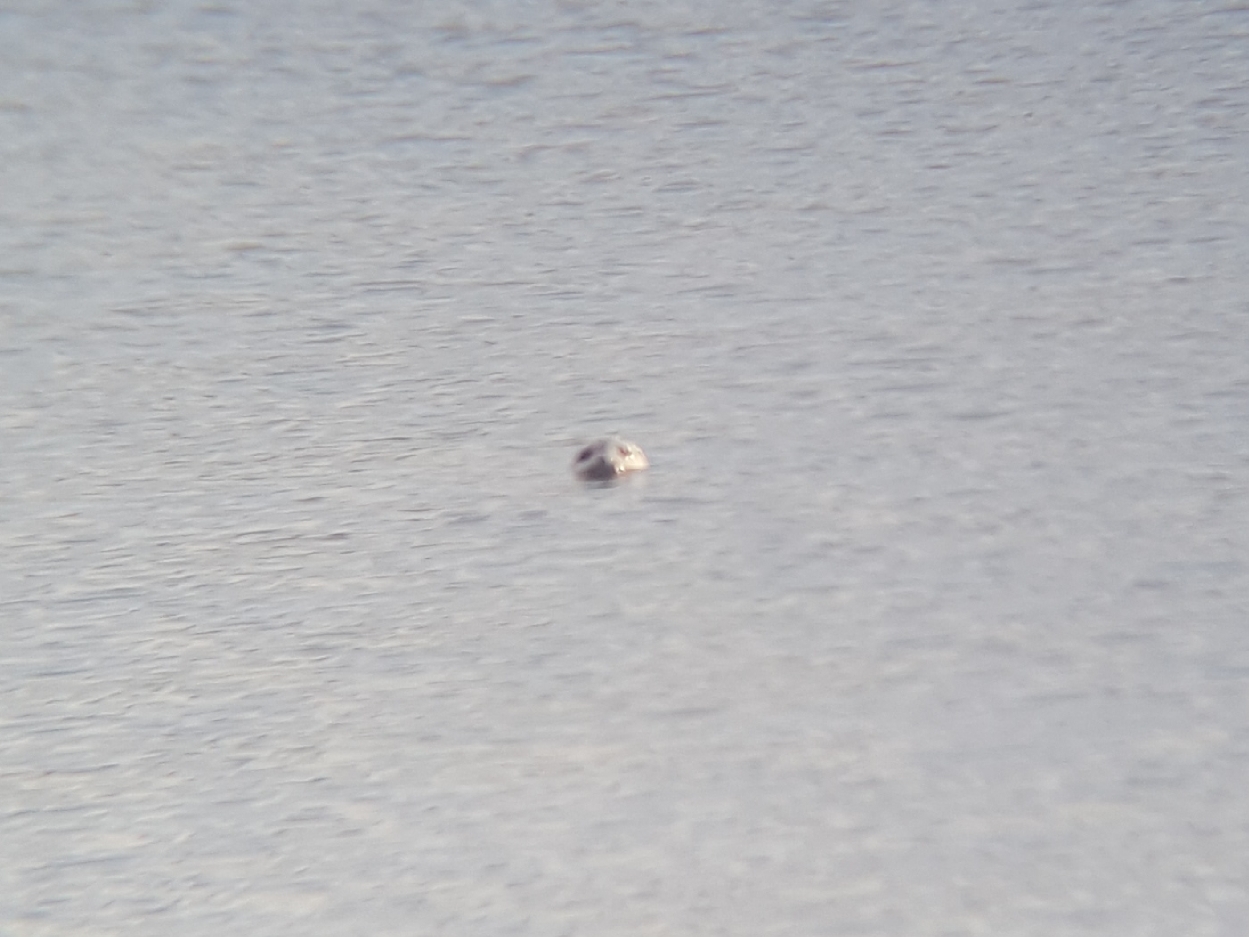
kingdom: Animalia
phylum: Chordata
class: Mammalia
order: Carnivora
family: Phocidae
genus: Phoca
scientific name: Phoca vitulina
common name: Harbor seal
